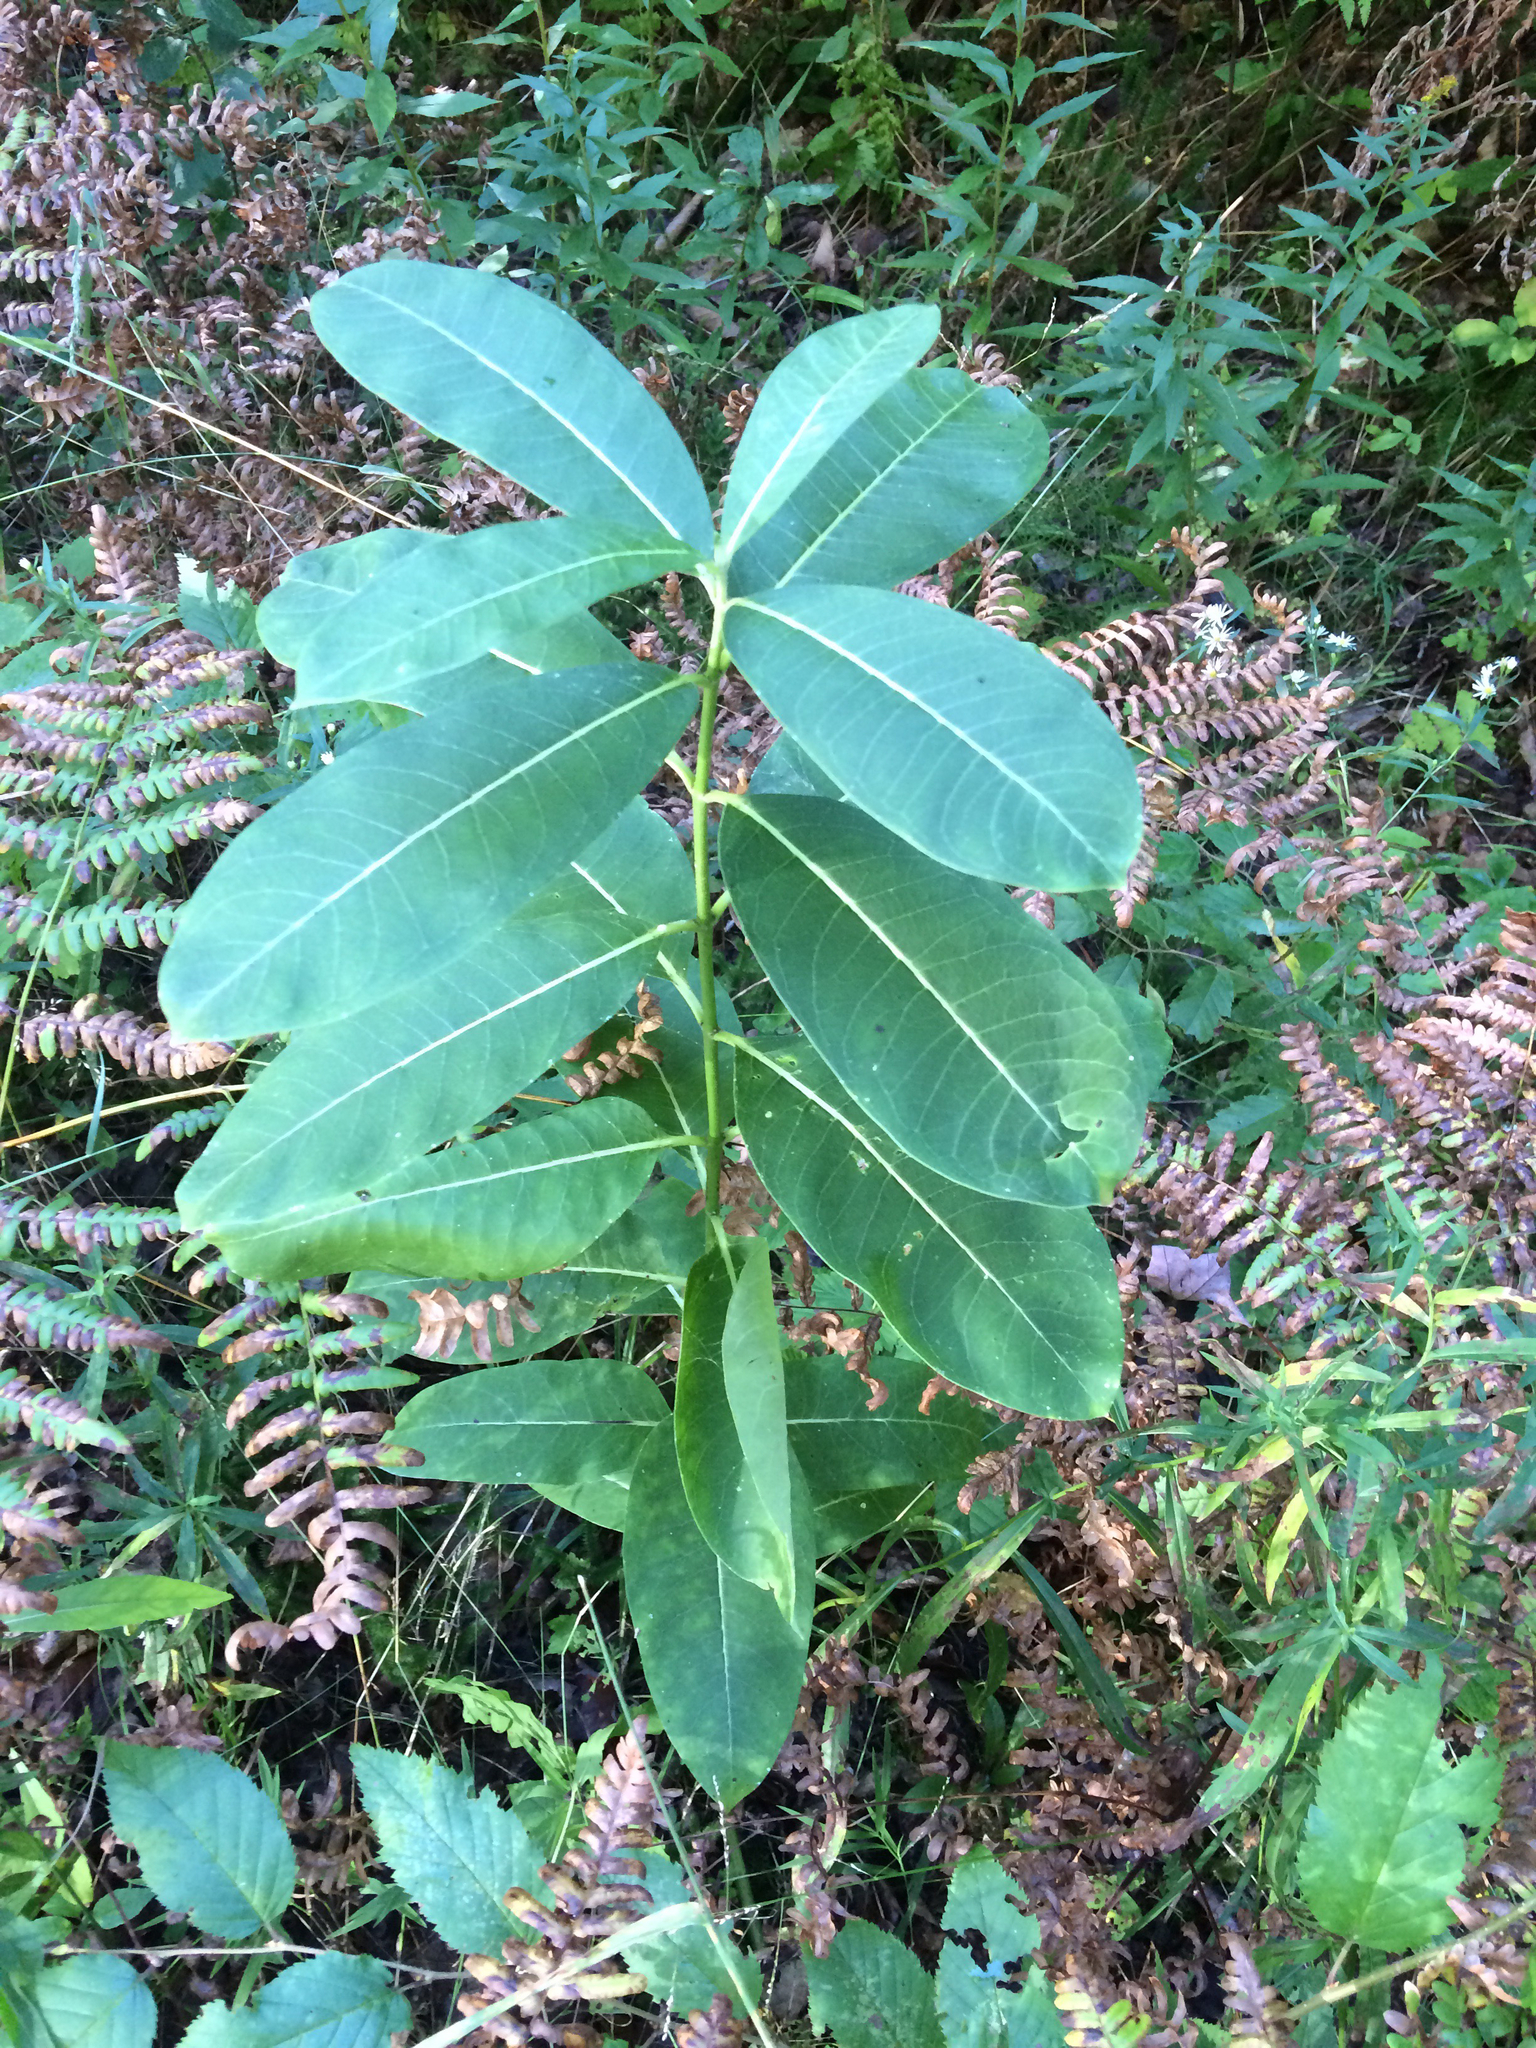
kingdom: Plantae
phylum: Tracheophyta
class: Magnoliopsida
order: Gentianales
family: Apocynaceae
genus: Asclepias
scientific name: Asclepias syriaca
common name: Common milkweed
